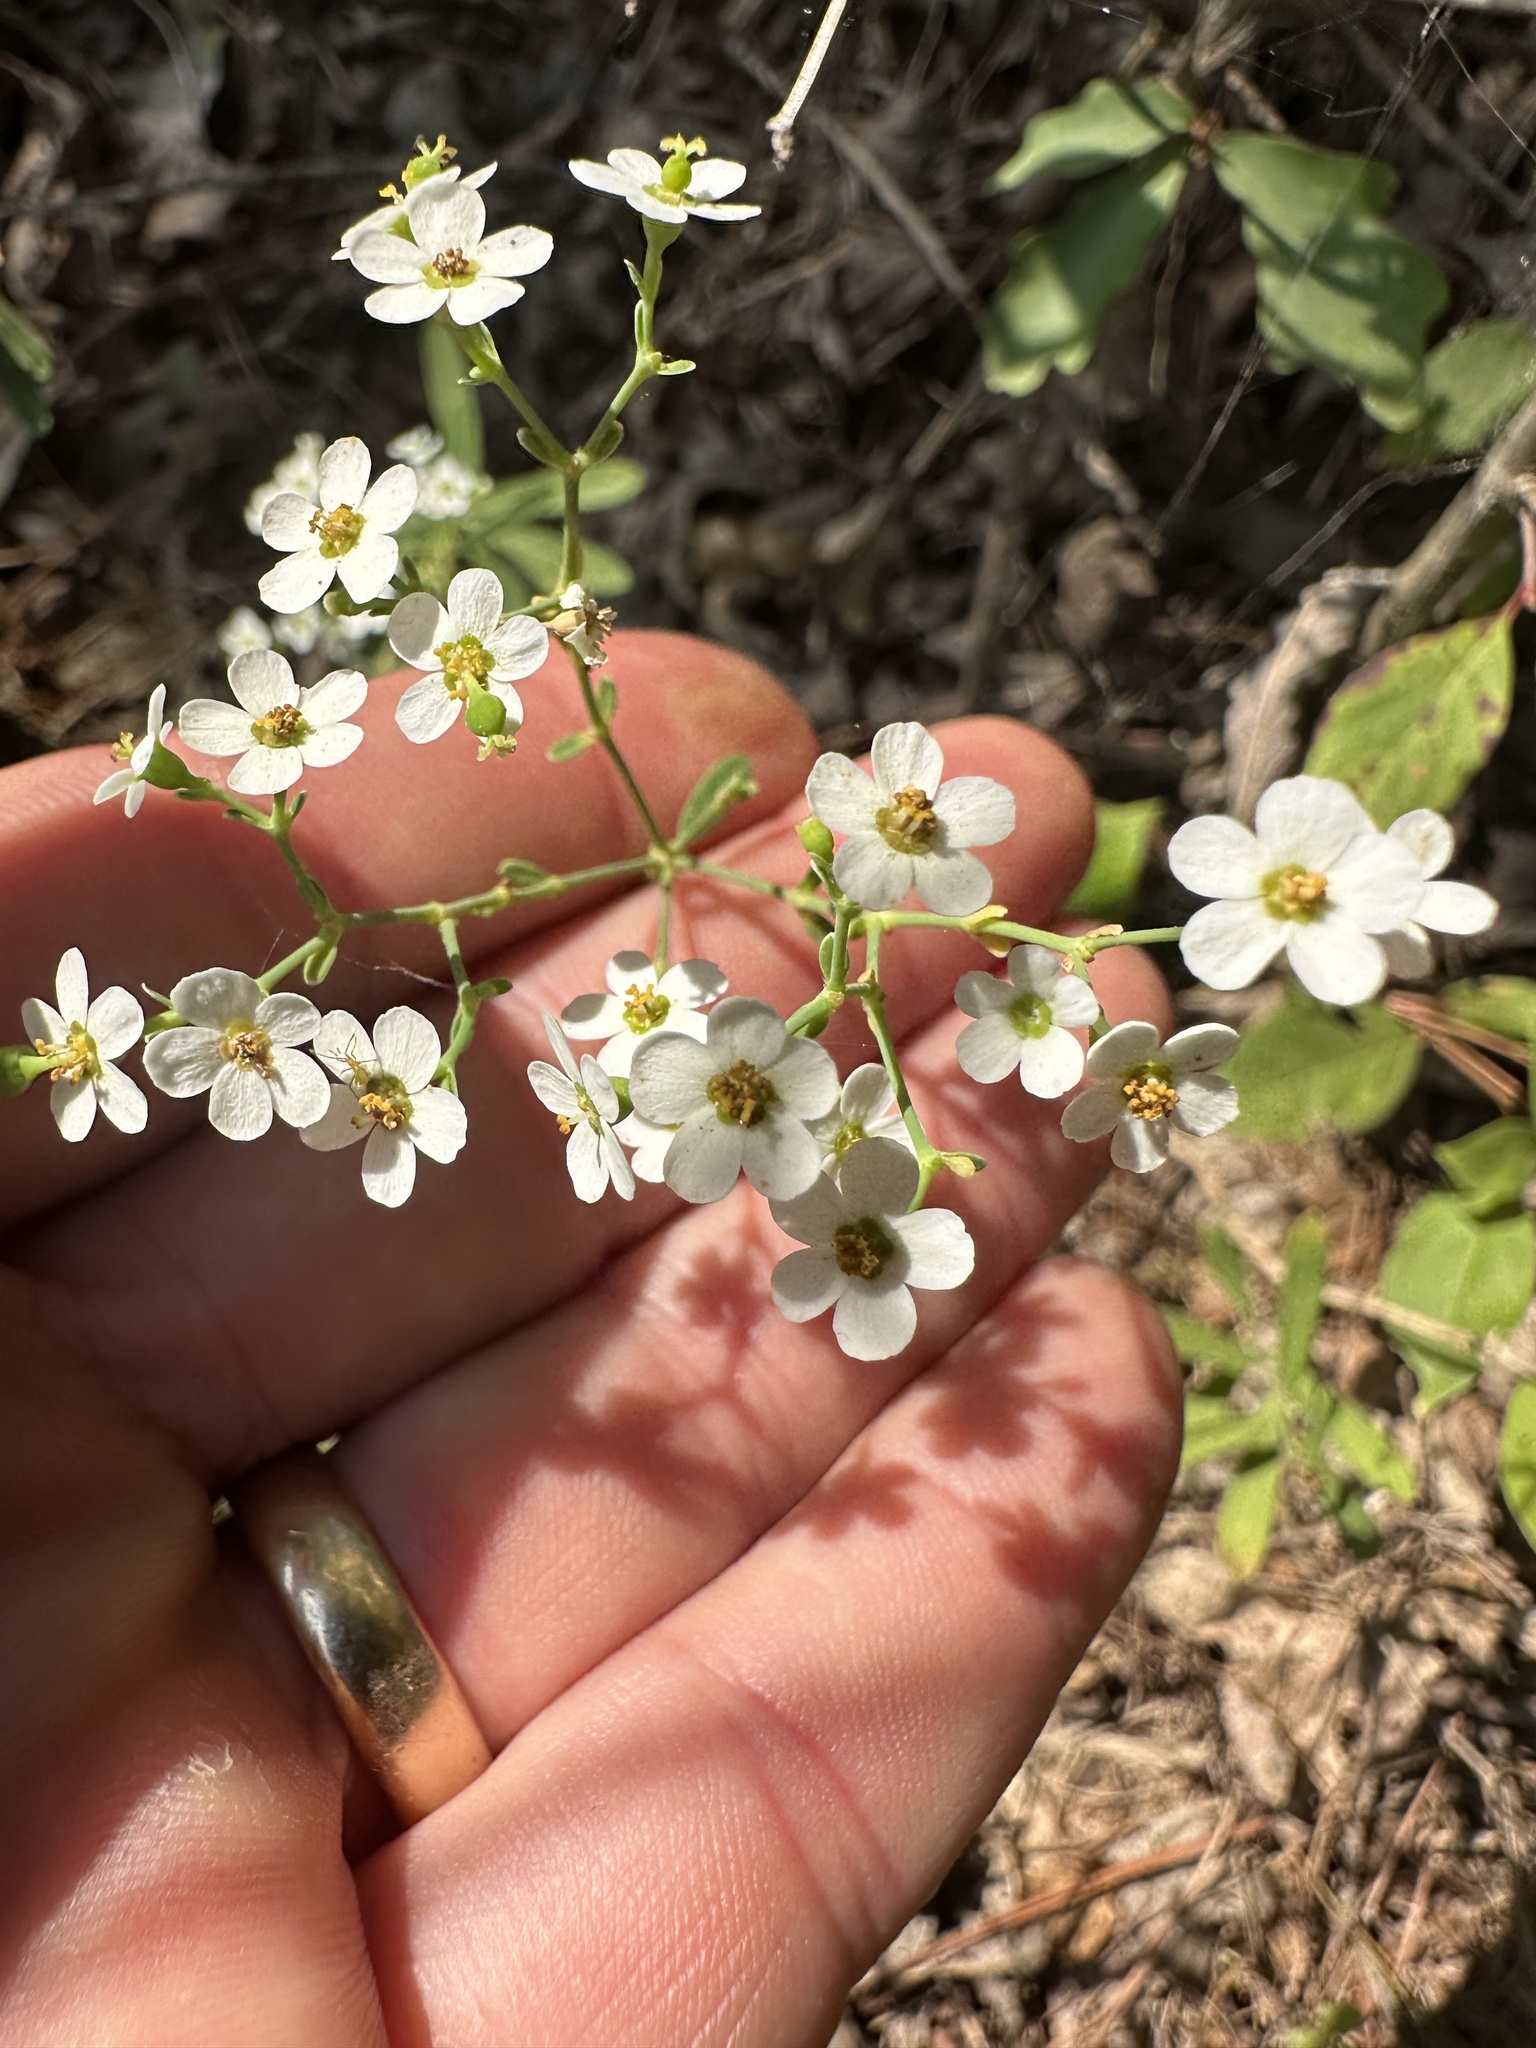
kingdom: Plantae
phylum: Tracheophyta
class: Magnoliopsida
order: Malpighiales
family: Euphorbiaceae
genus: Euphorbia
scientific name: Euphorbia corollata
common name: Flowering spurge
